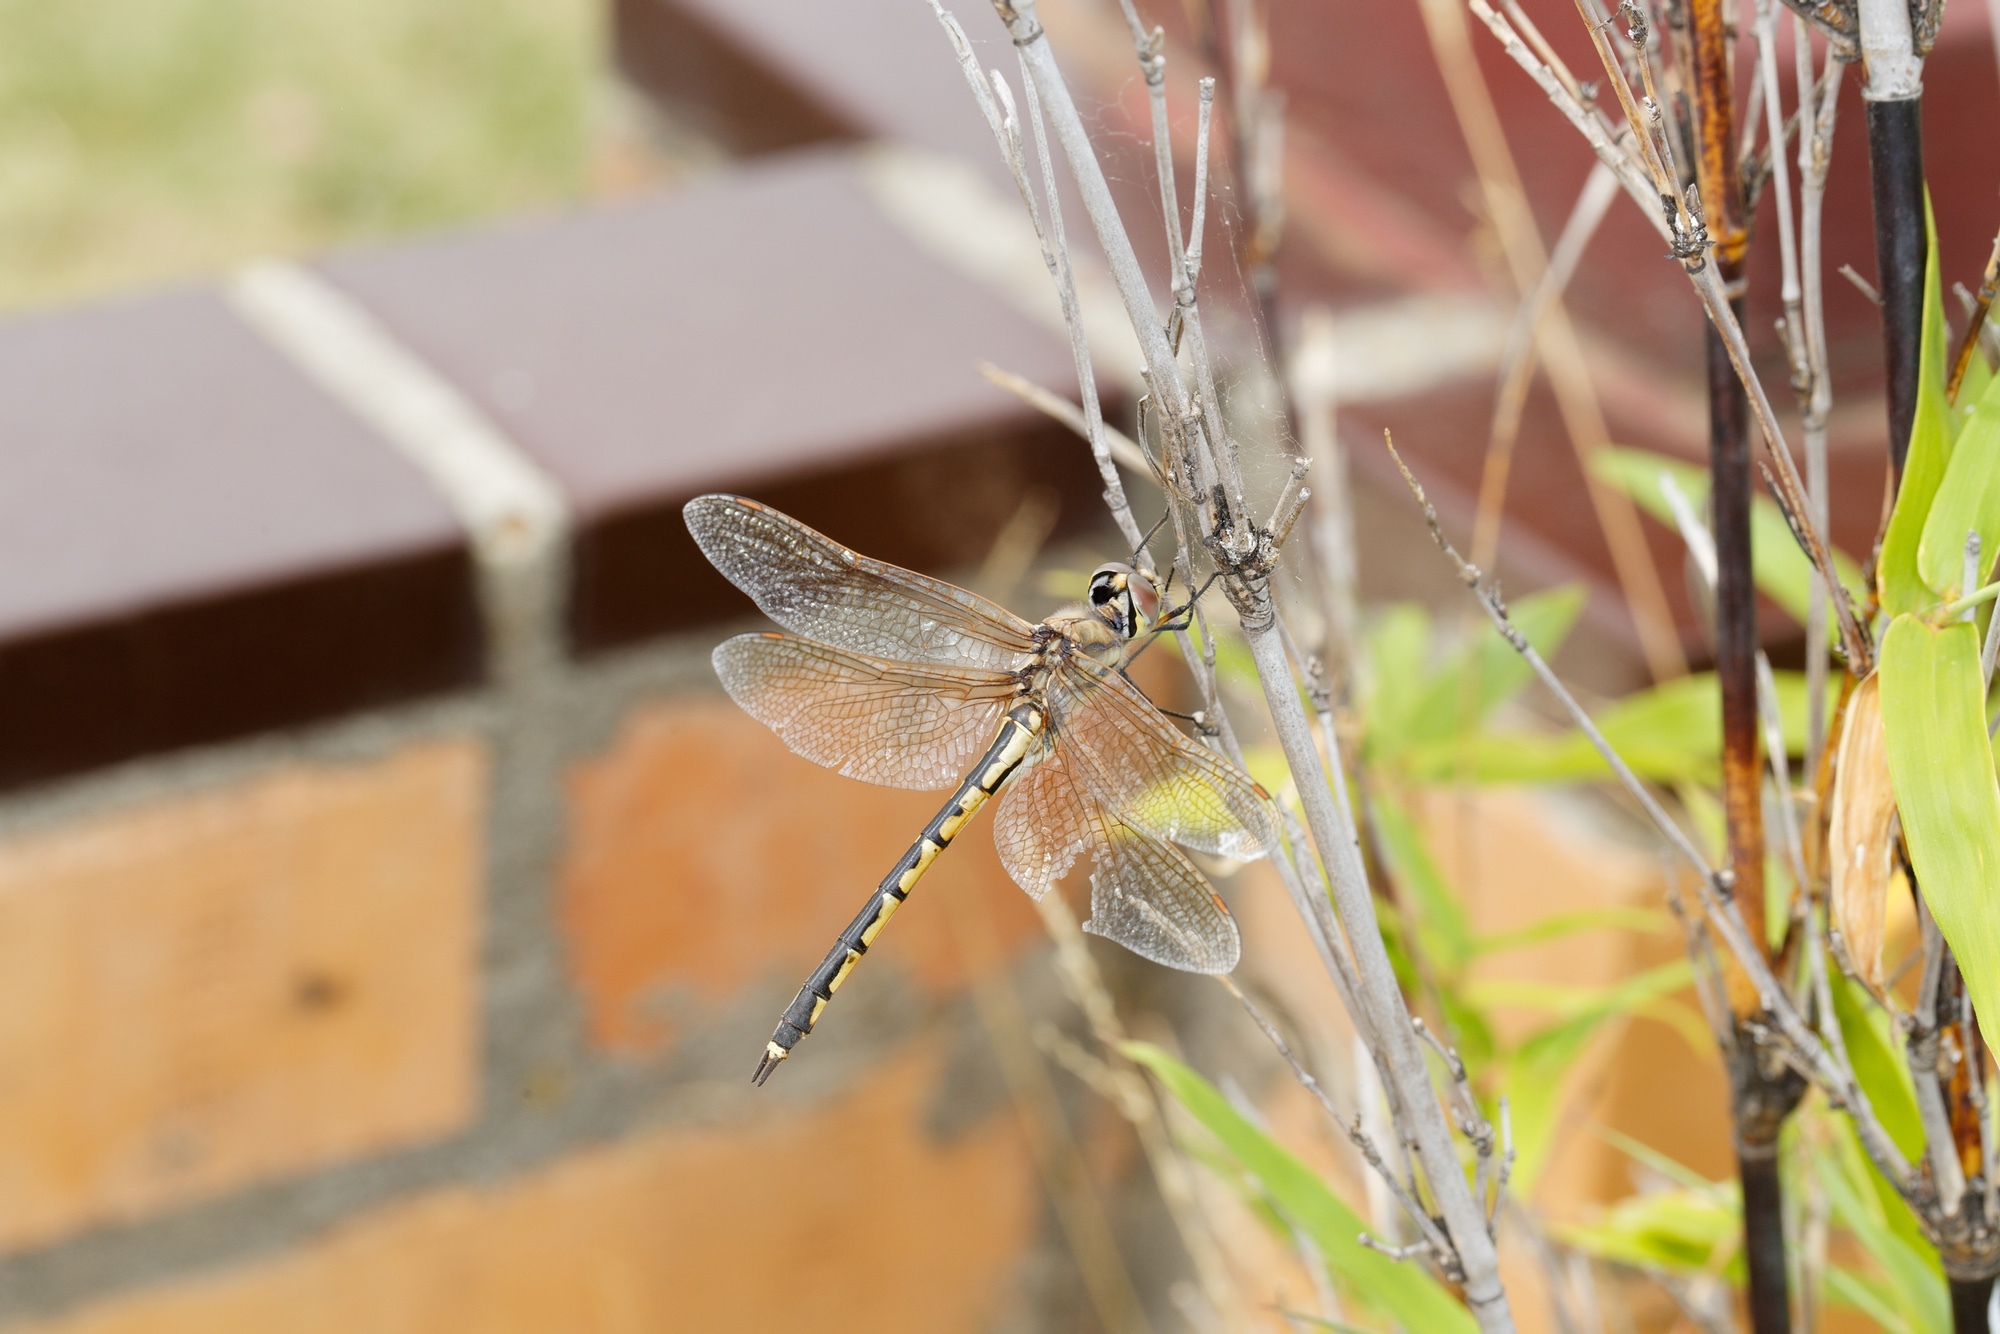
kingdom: Animalia
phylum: Arthropoda
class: Insecta
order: Odonata
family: Corduliidae
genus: Hemicordulia
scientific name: Hemicordulia tau
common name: Tau emerald
